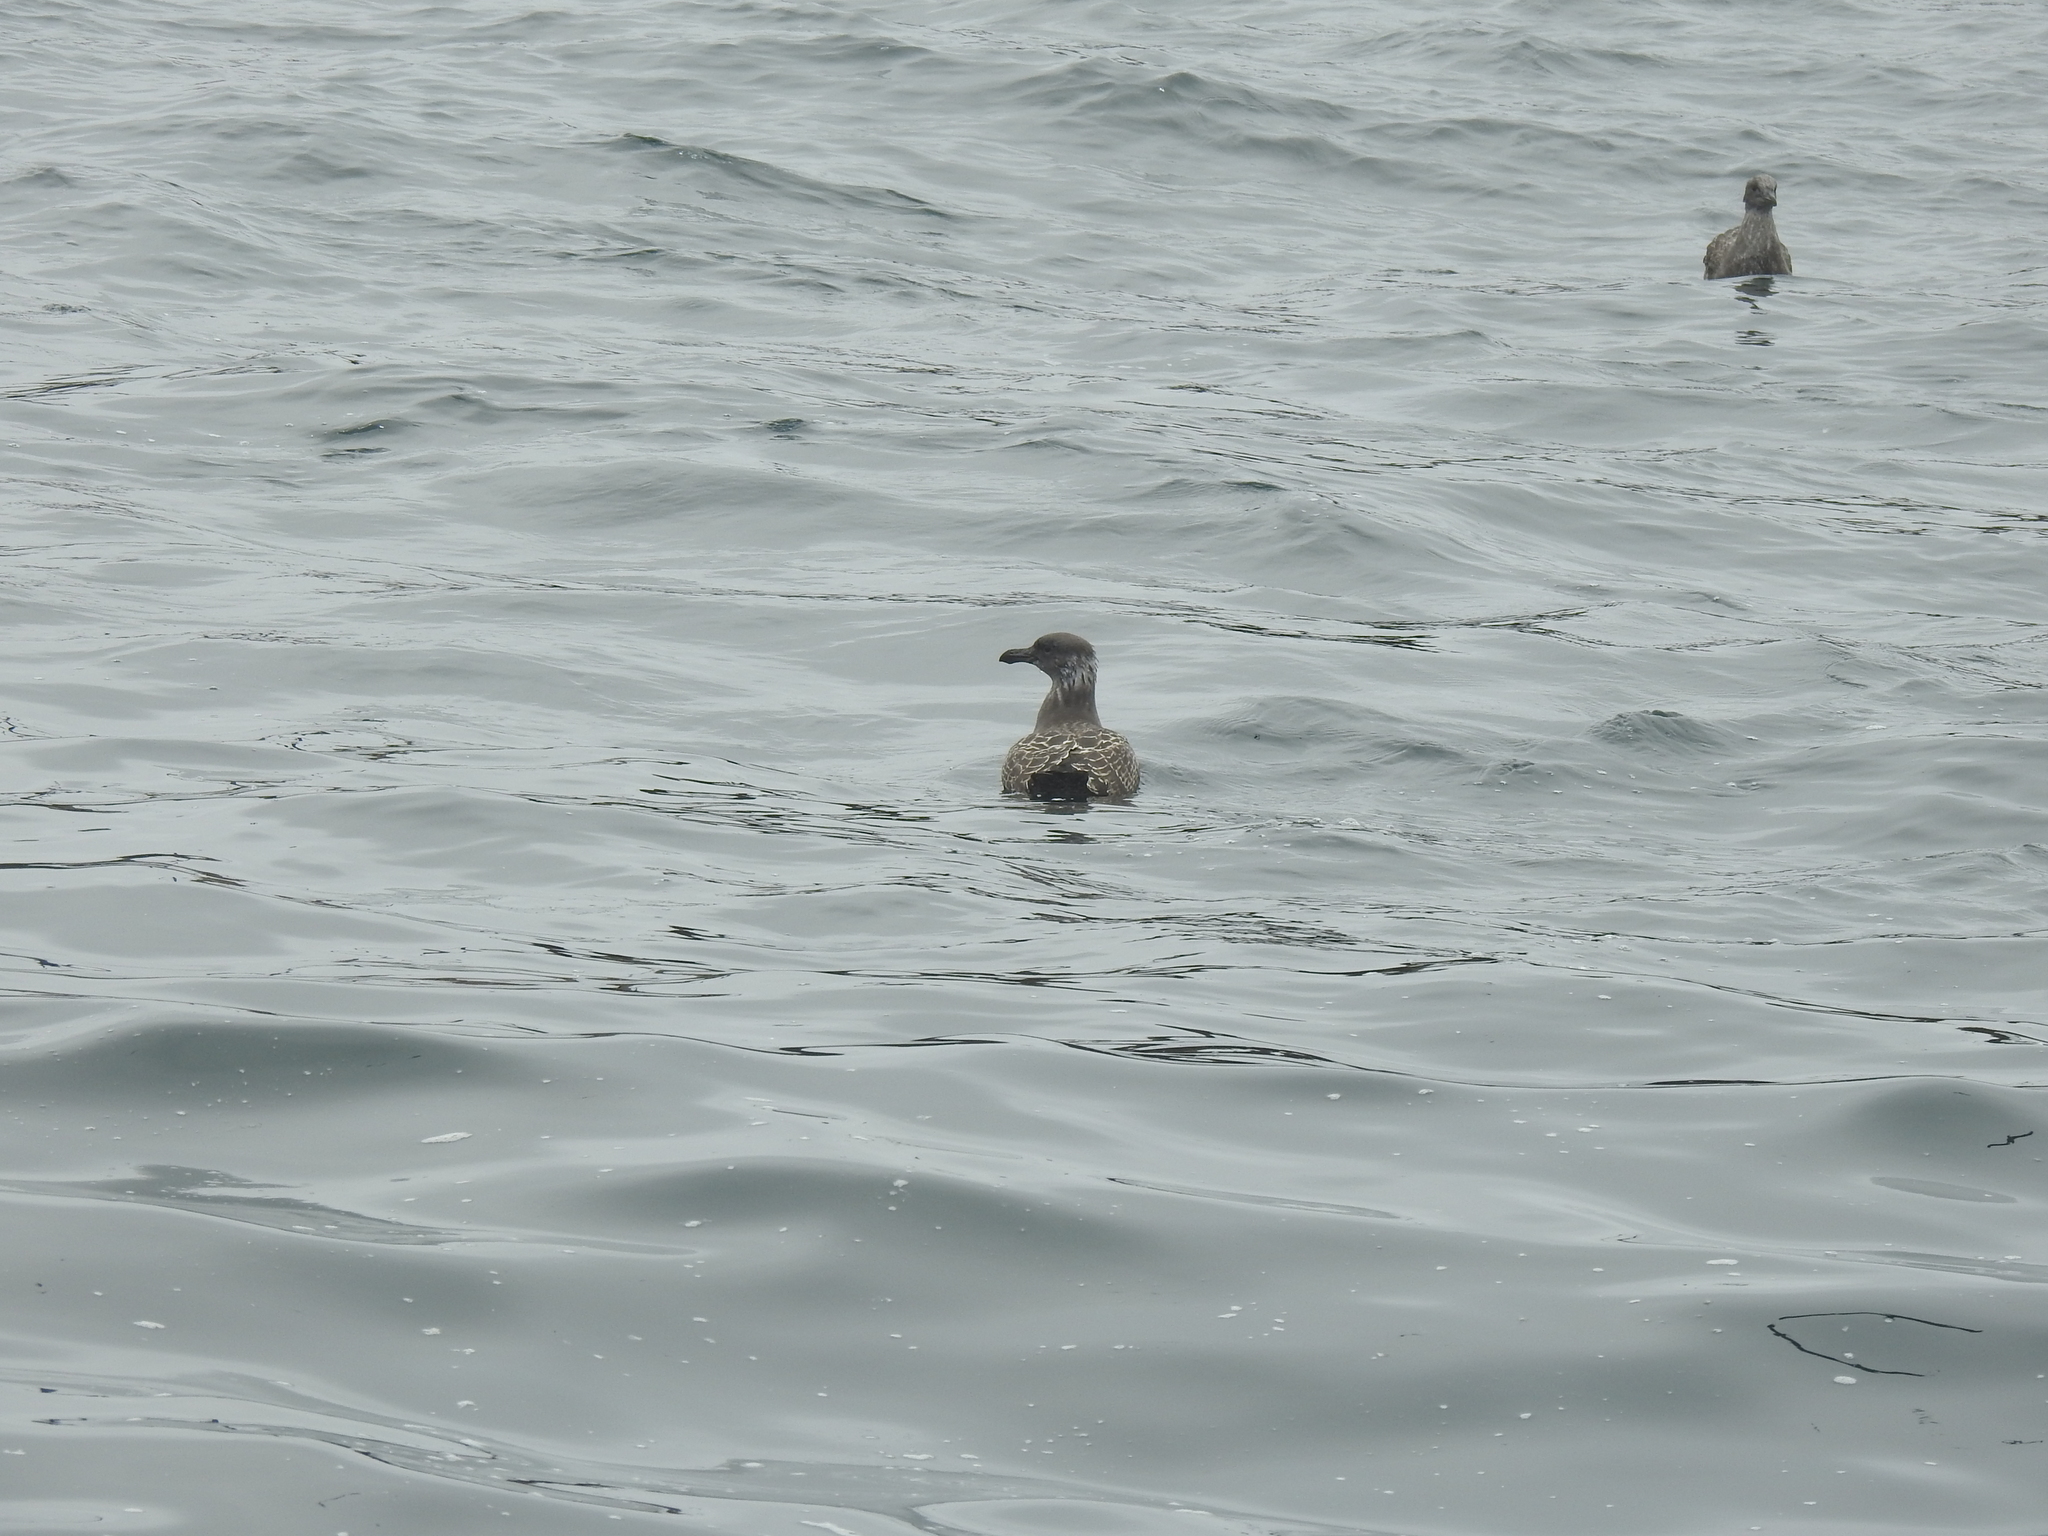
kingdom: Animalia
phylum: Chordata
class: Aves
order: Charadriiformes
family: Laridae
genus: Larus
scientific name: Larus occidentalis
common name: Western gull
